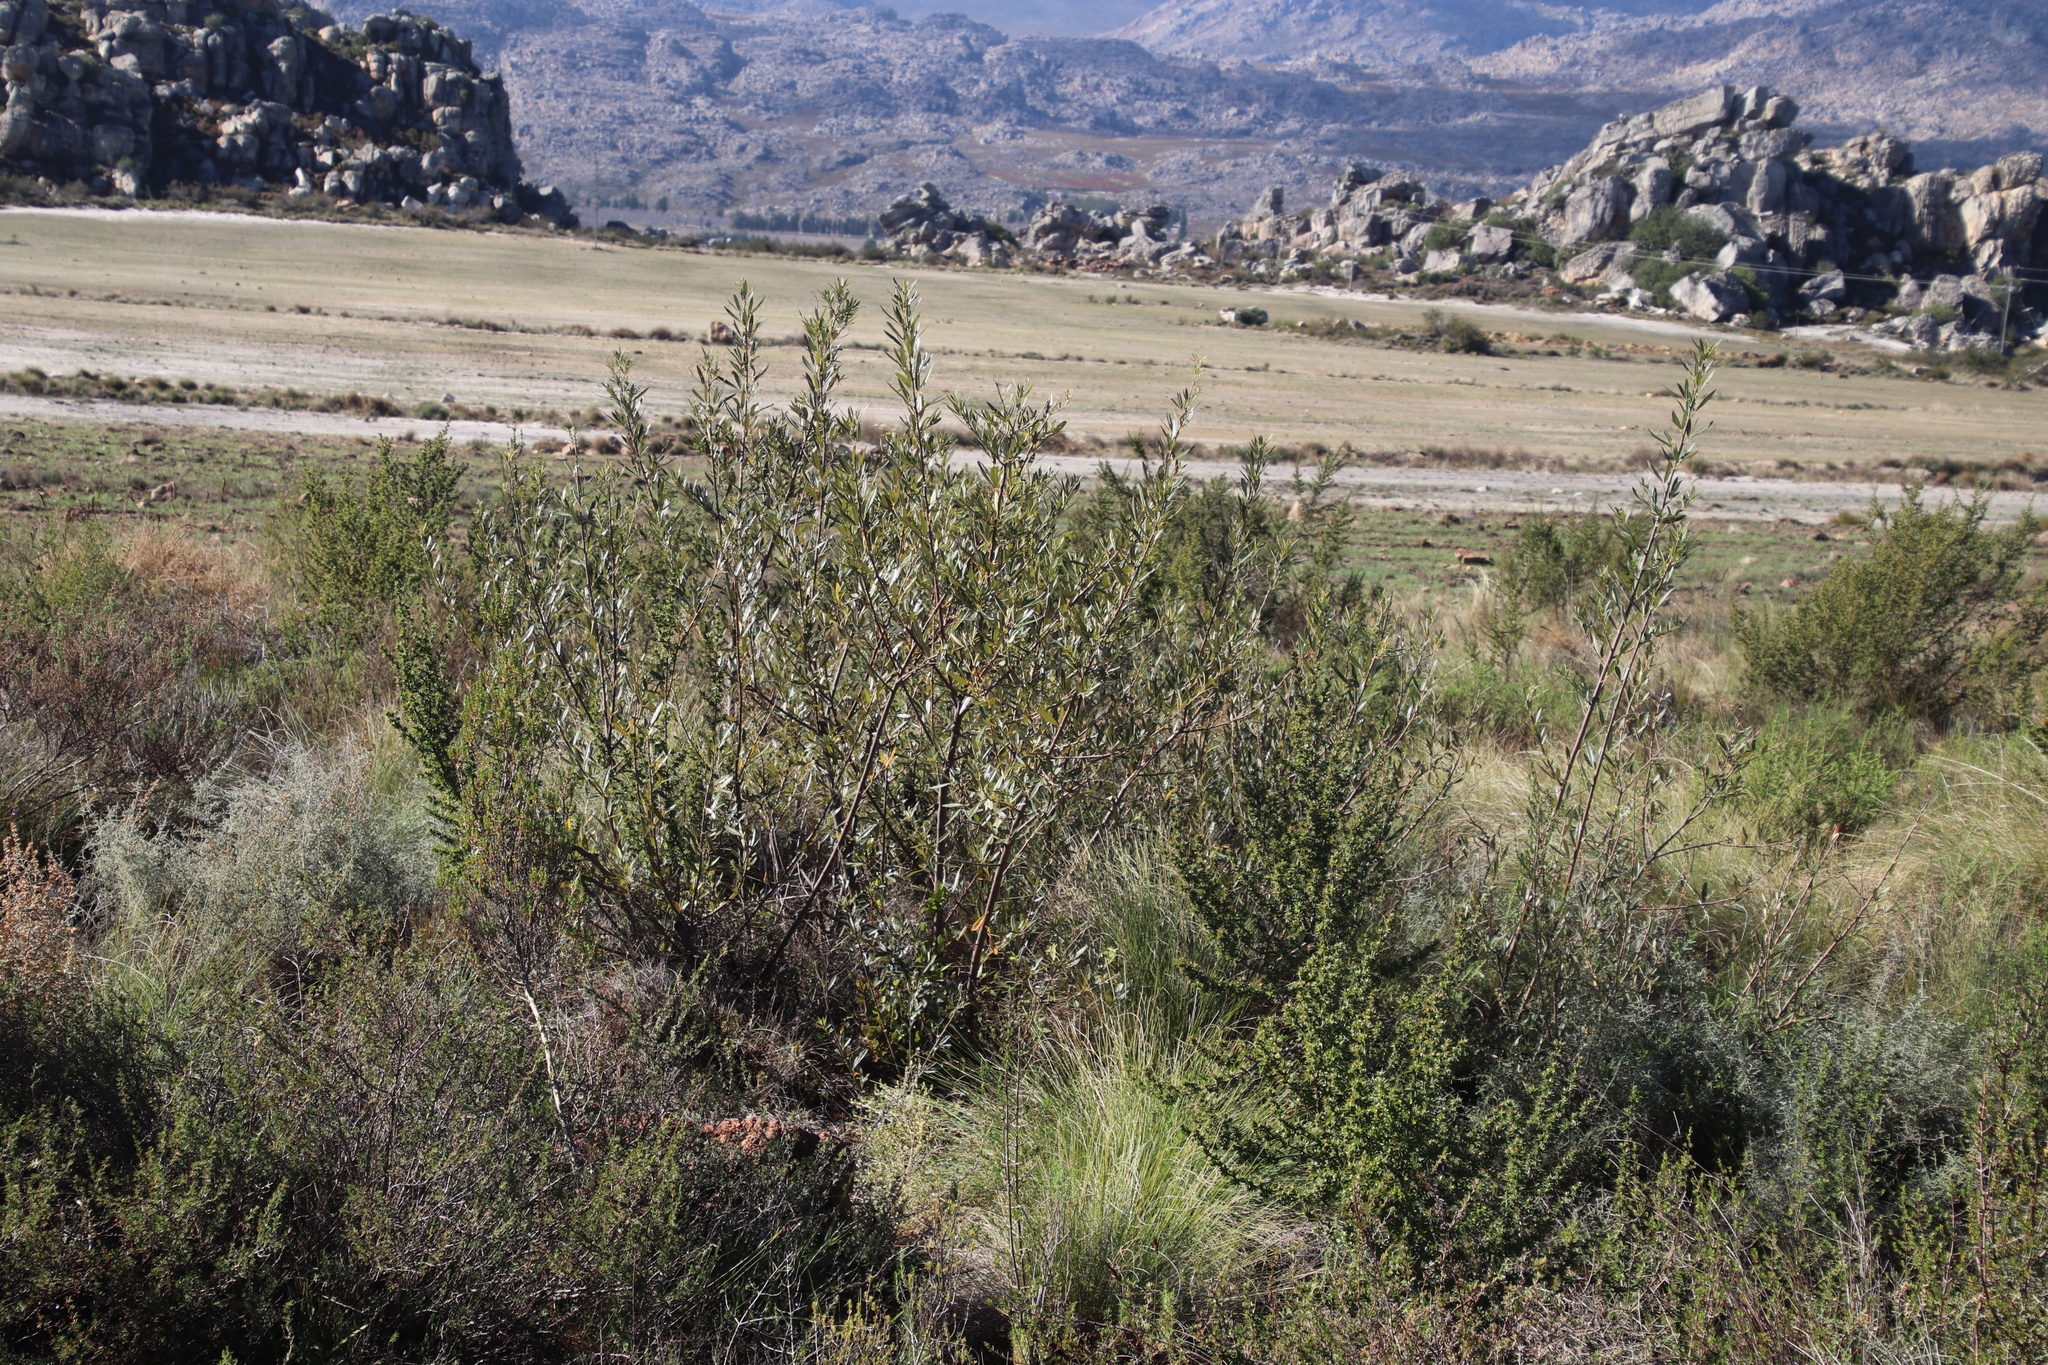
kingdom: Plantae
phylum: Tracheophyta
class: Magnoliopsida
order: Sapindales
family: Anacardiaceae
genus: Searsia
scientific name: Searsia angustifolia
